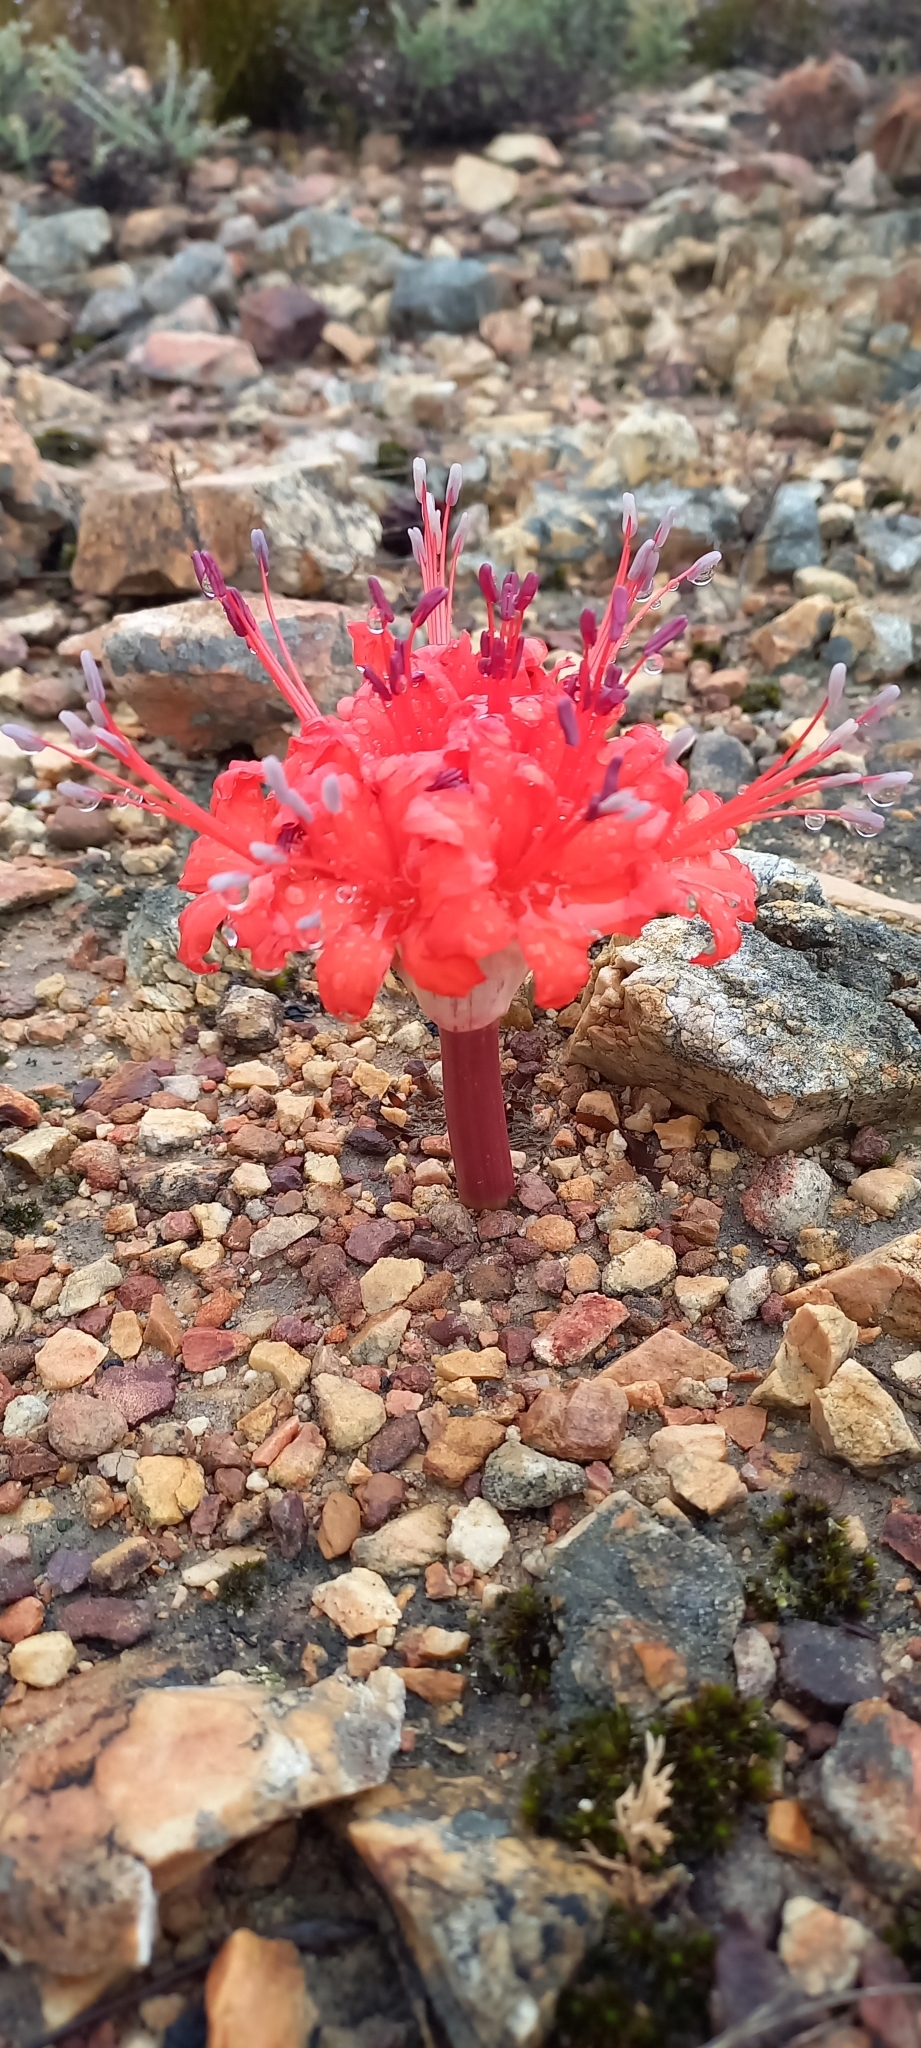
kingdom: Plantae
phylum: Tracheophyta
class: Liliopsida
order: Asparagales
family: Amaryllidaceae
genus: Brunsvigia
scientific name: Brunsvigia marginata
